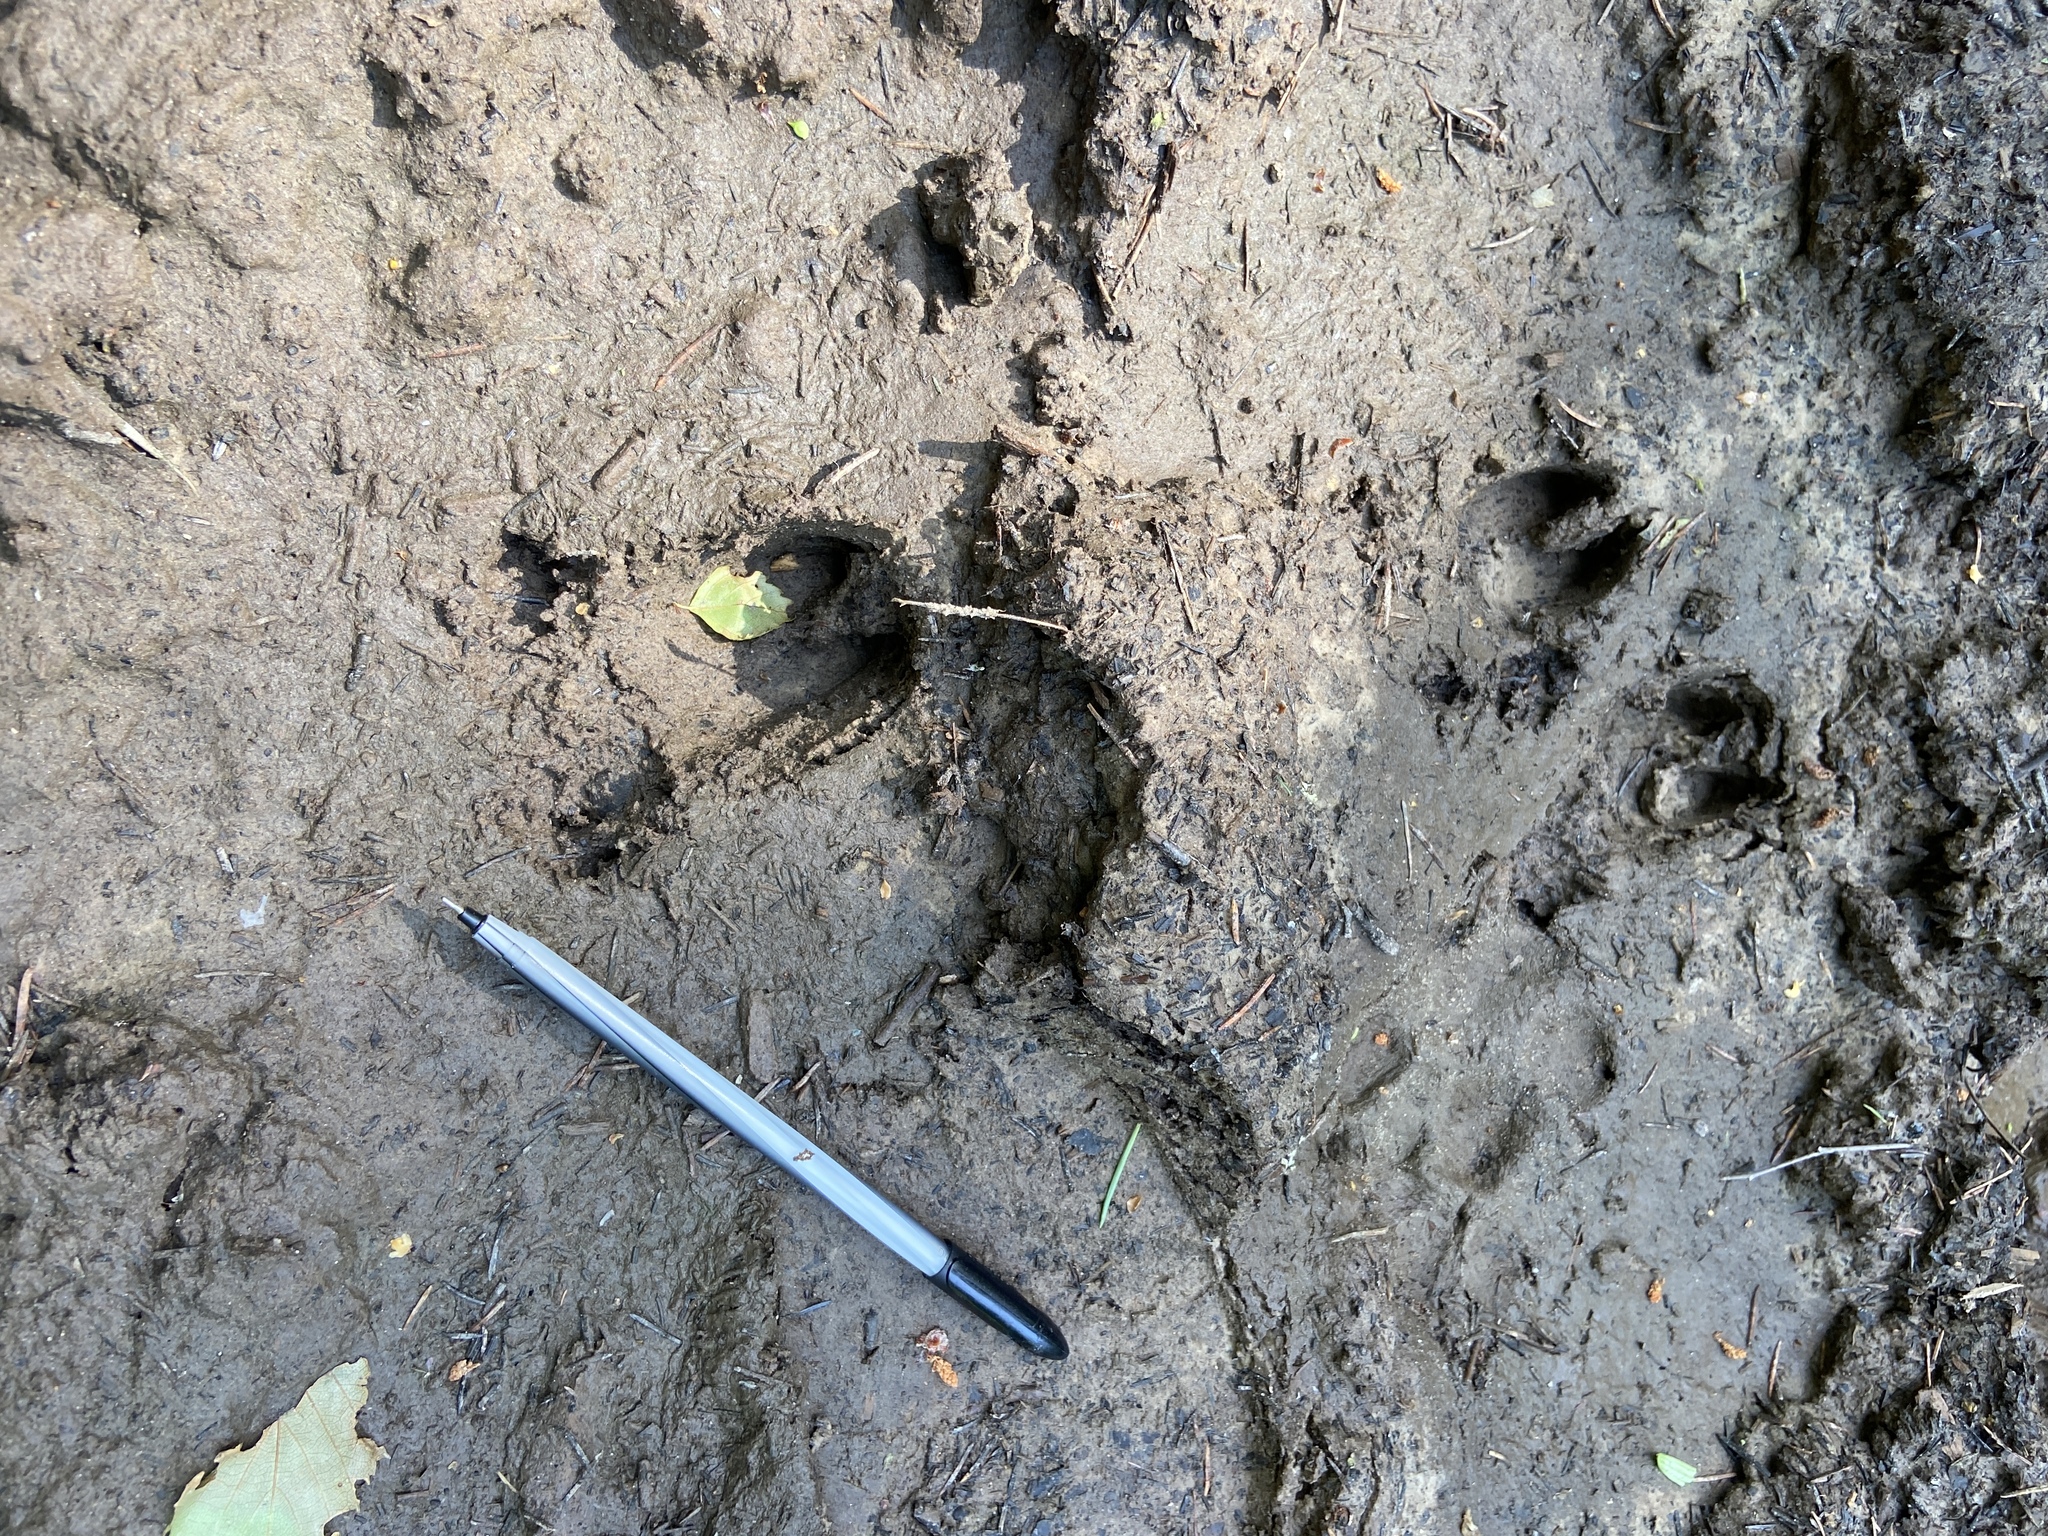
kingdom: Animalia
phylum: Chordata
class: Mammalia
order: Artiodactyla
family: Suidae
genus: Sus
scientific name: Sus scrofa
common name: Wild boar
